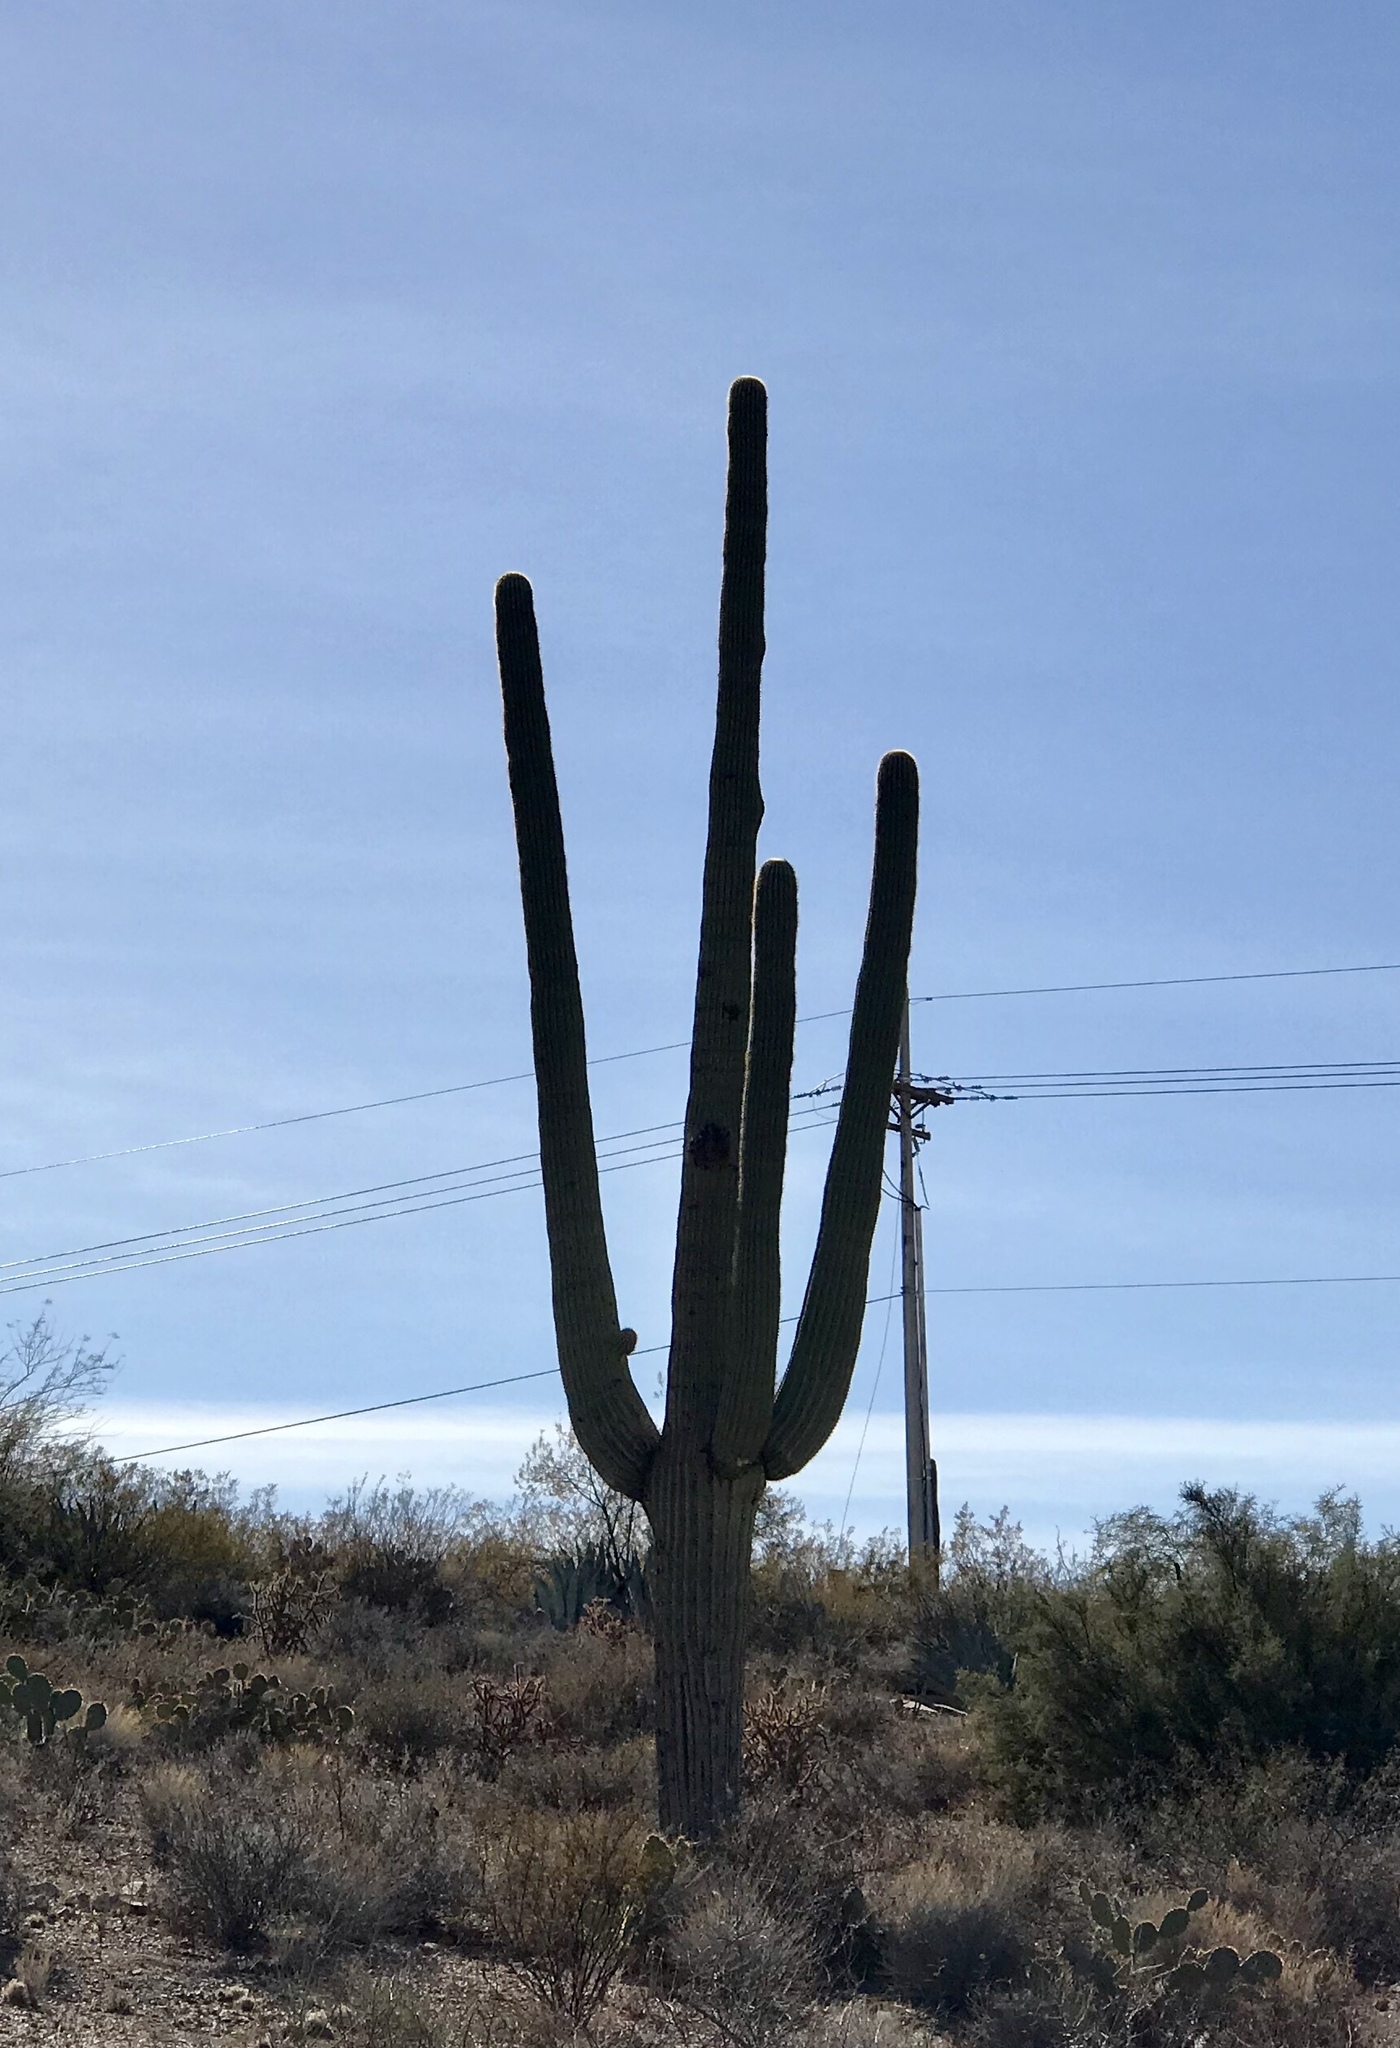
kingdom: Plantae
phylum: Tracheophyta
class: Magnoliopsida
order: Caryophyllales
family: Cactaceae
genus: Carnegiea
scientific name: Carnegiea gigantea
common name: Saguaro
